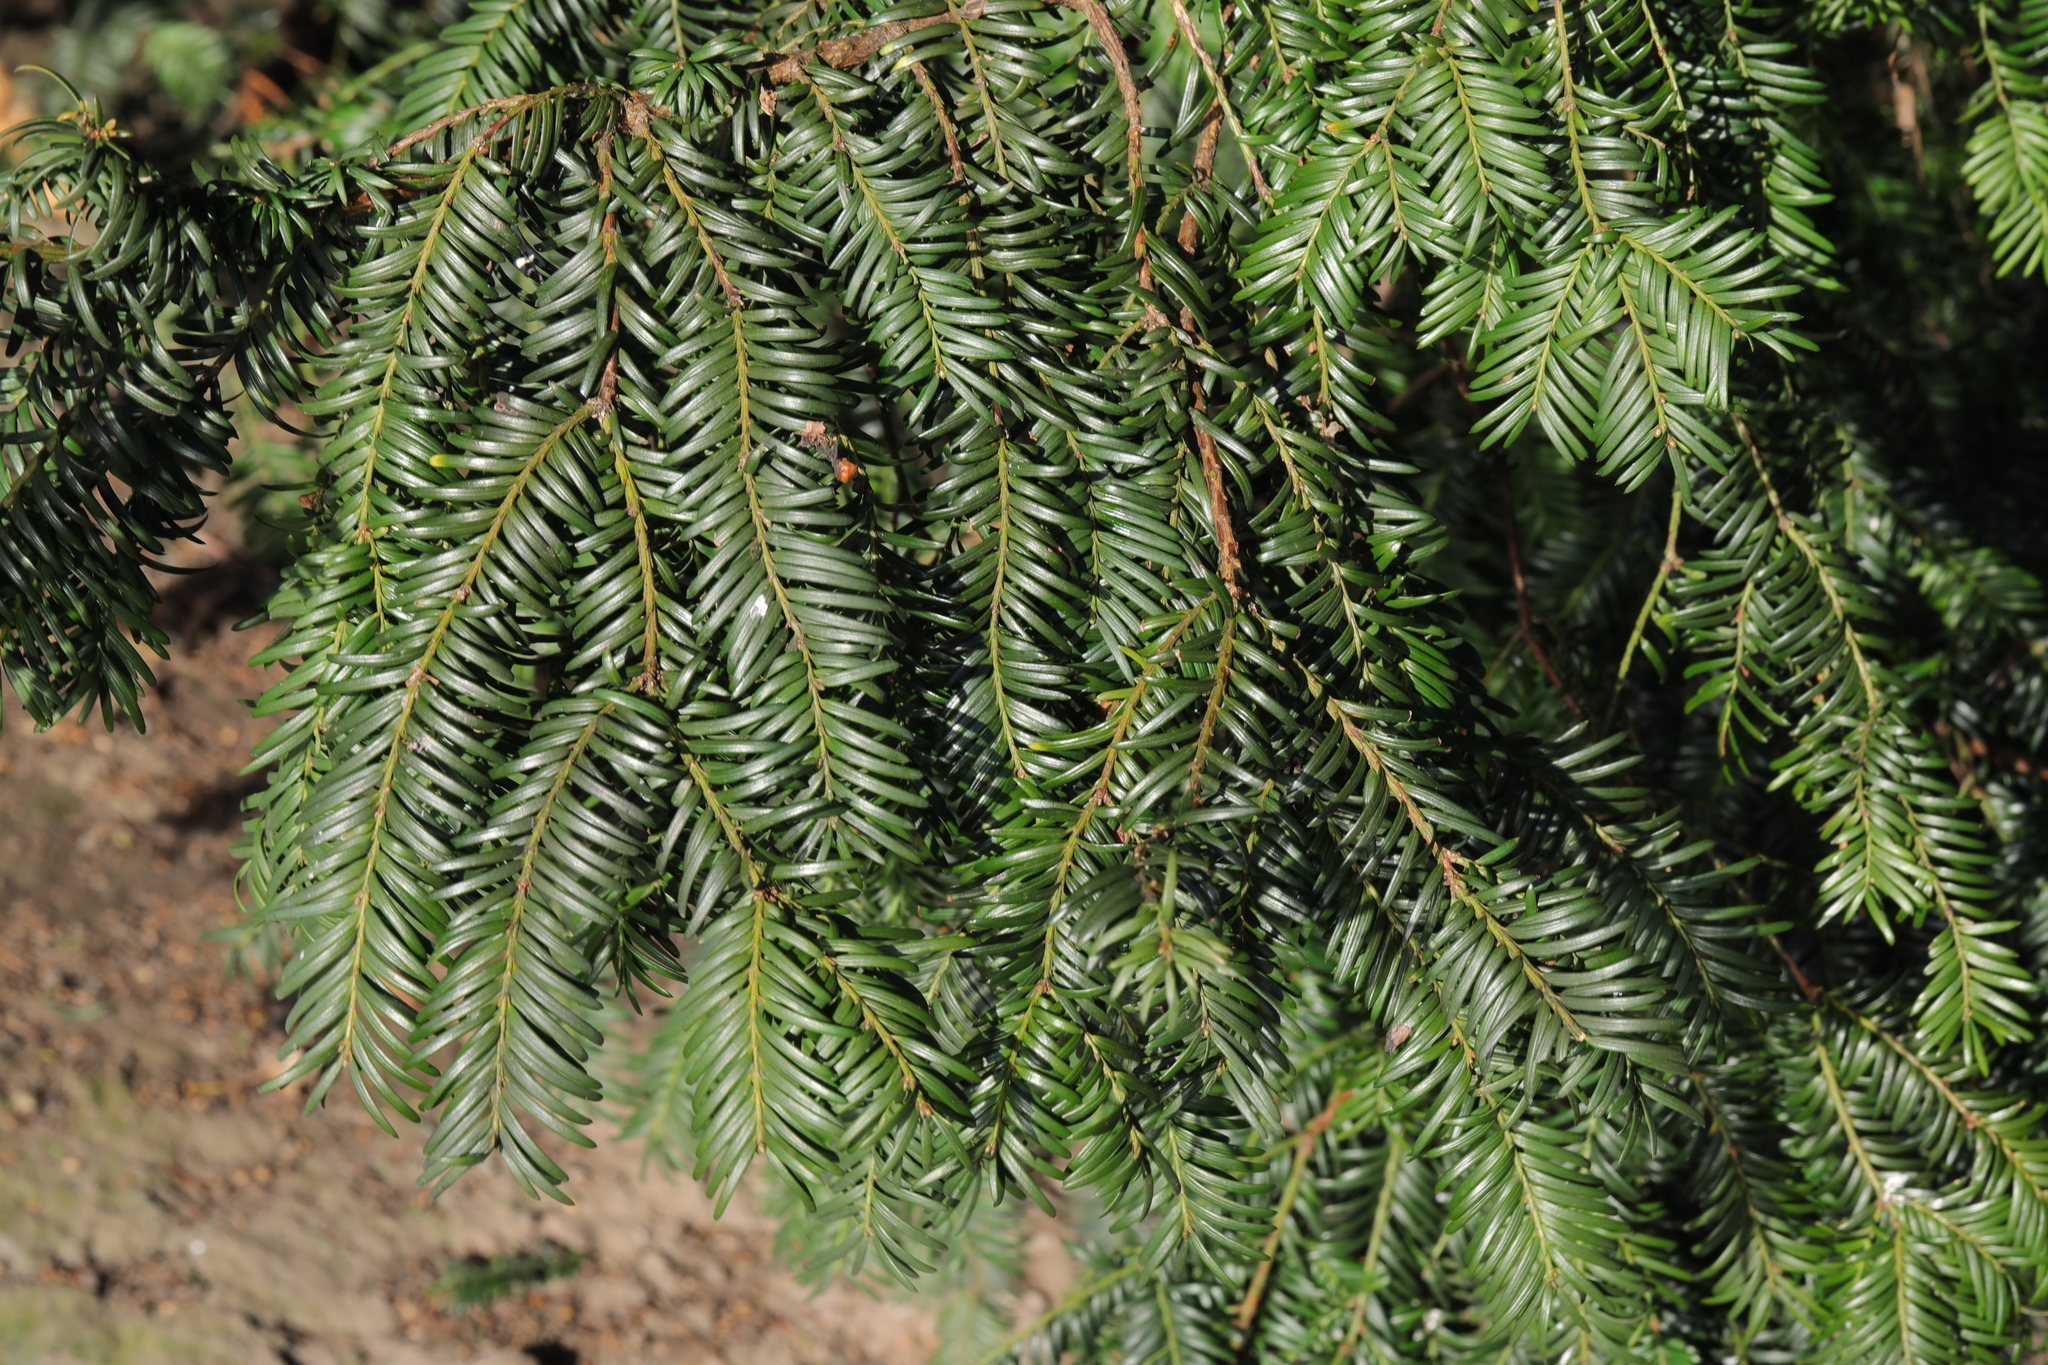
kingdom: Plantae
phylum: Tracheophyta
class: Pinopsida
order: Pinales
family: Taxaceae
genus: Taxus
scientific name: Taxus baccata
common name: Yew
